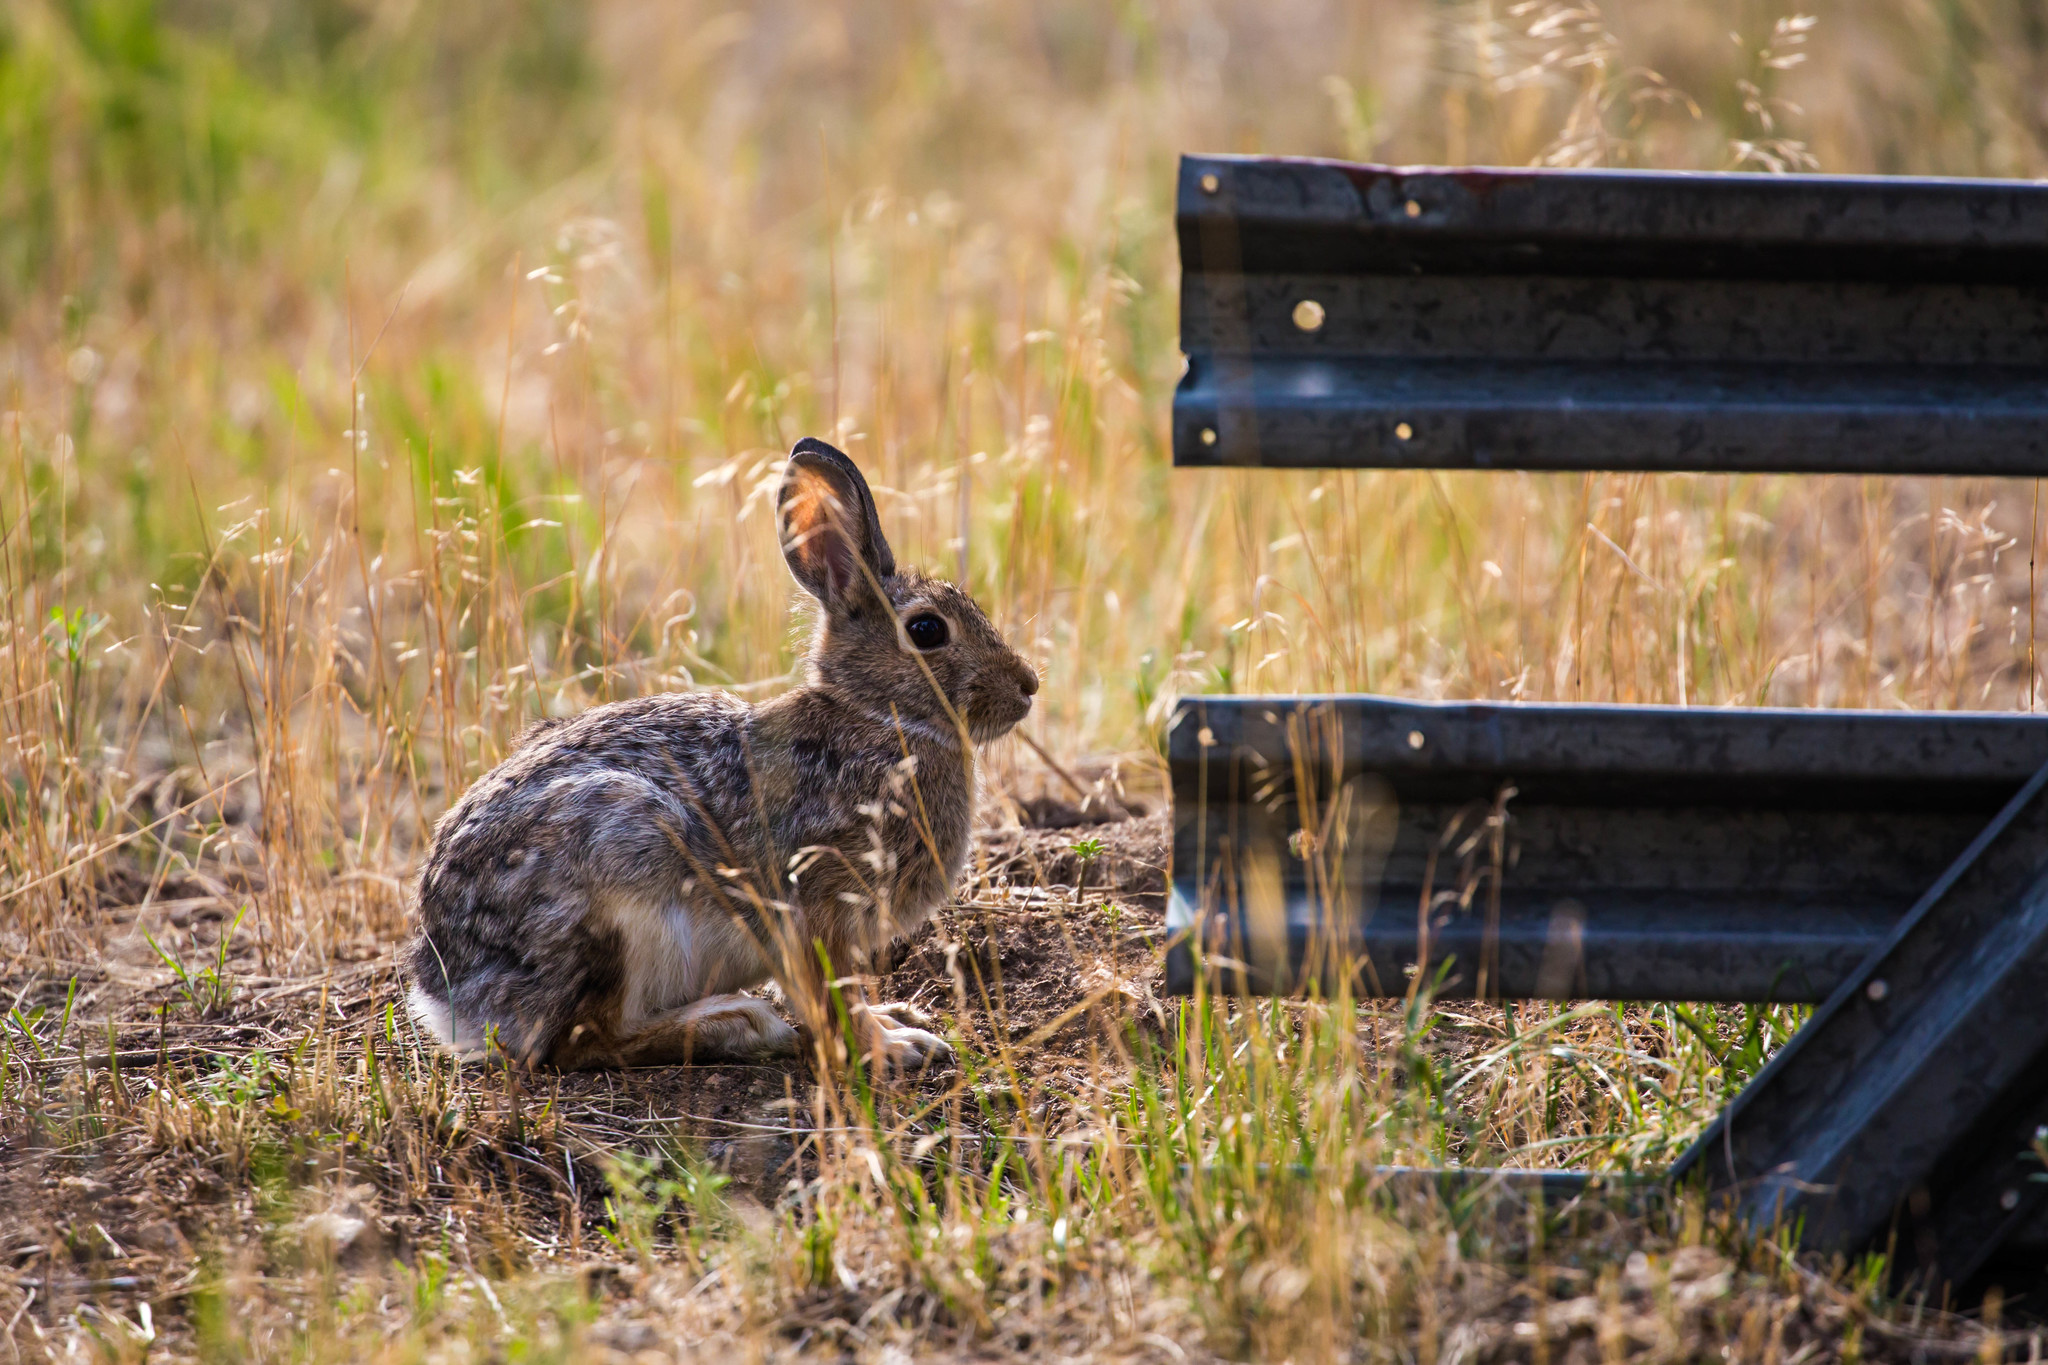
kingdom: Animalia
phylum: Chordata
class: Mammalia
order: Lagomorpha
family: Leporidae
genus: Sylvilagus
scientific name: Sylvilagus nuttallii
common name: Mountain cottontail
